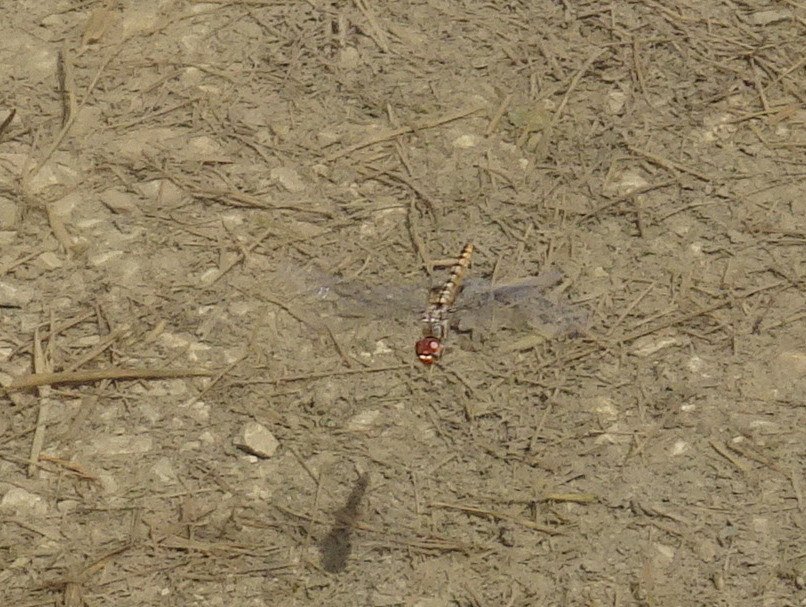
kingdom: Animalia
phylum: Arthropoda
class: Insecta
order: Odonata
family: Libellulidae
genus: Pantala
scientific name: Pantala hymenaea
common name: Spot-winged glider
